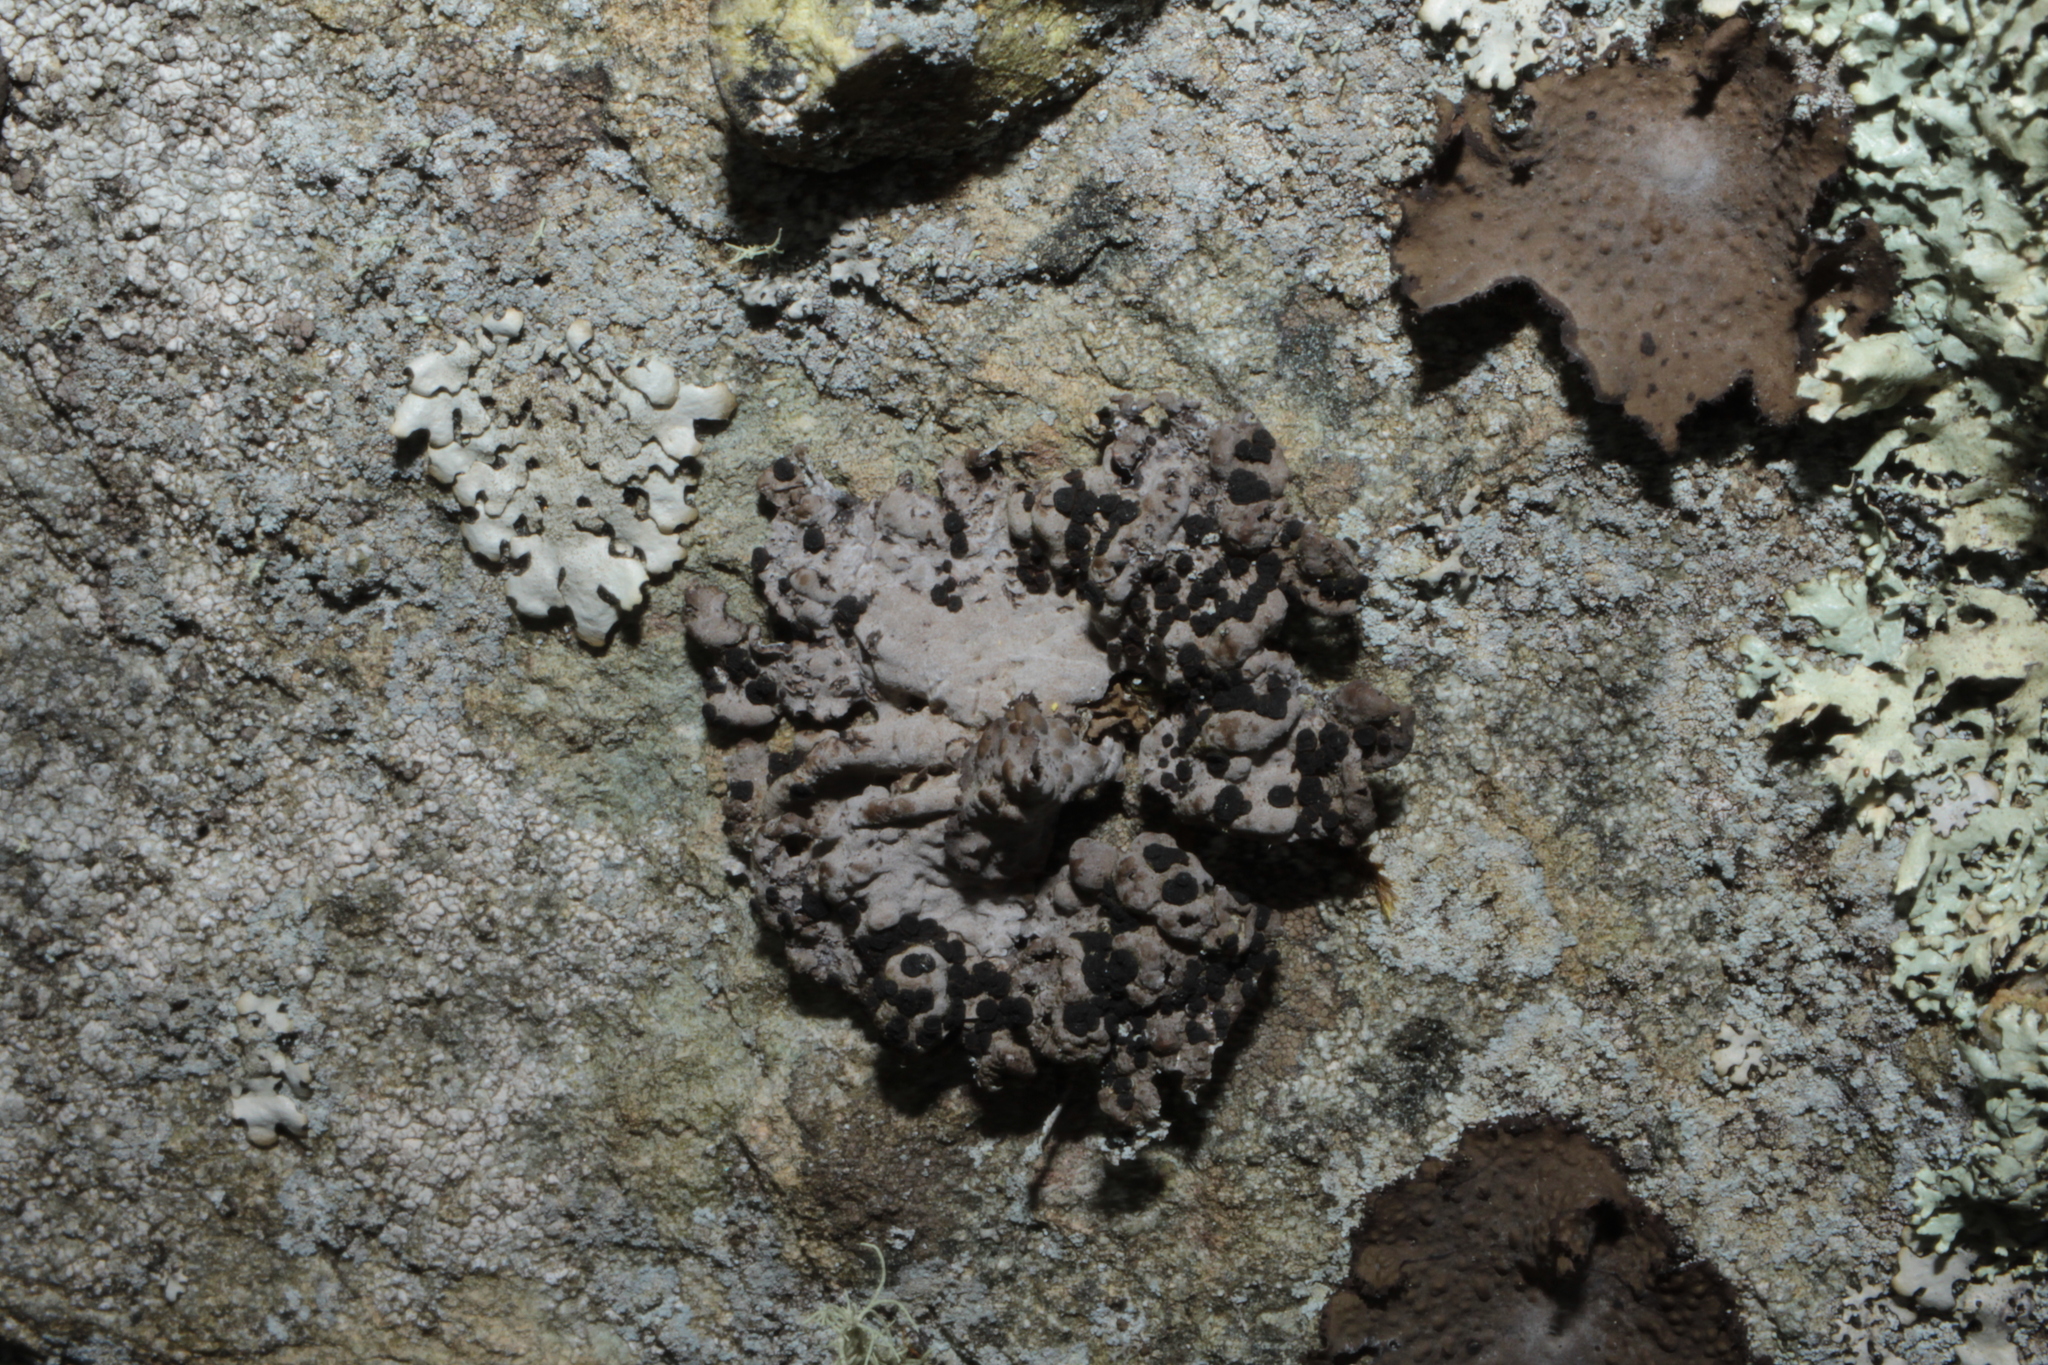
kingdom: Fungi
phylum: Ascomycota
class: Lecanoromycetes
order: Umbilicariales
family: Umbilicariaceae
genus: Lasallia
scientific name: Lasallia papulosa
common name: Common toadskin lichen
